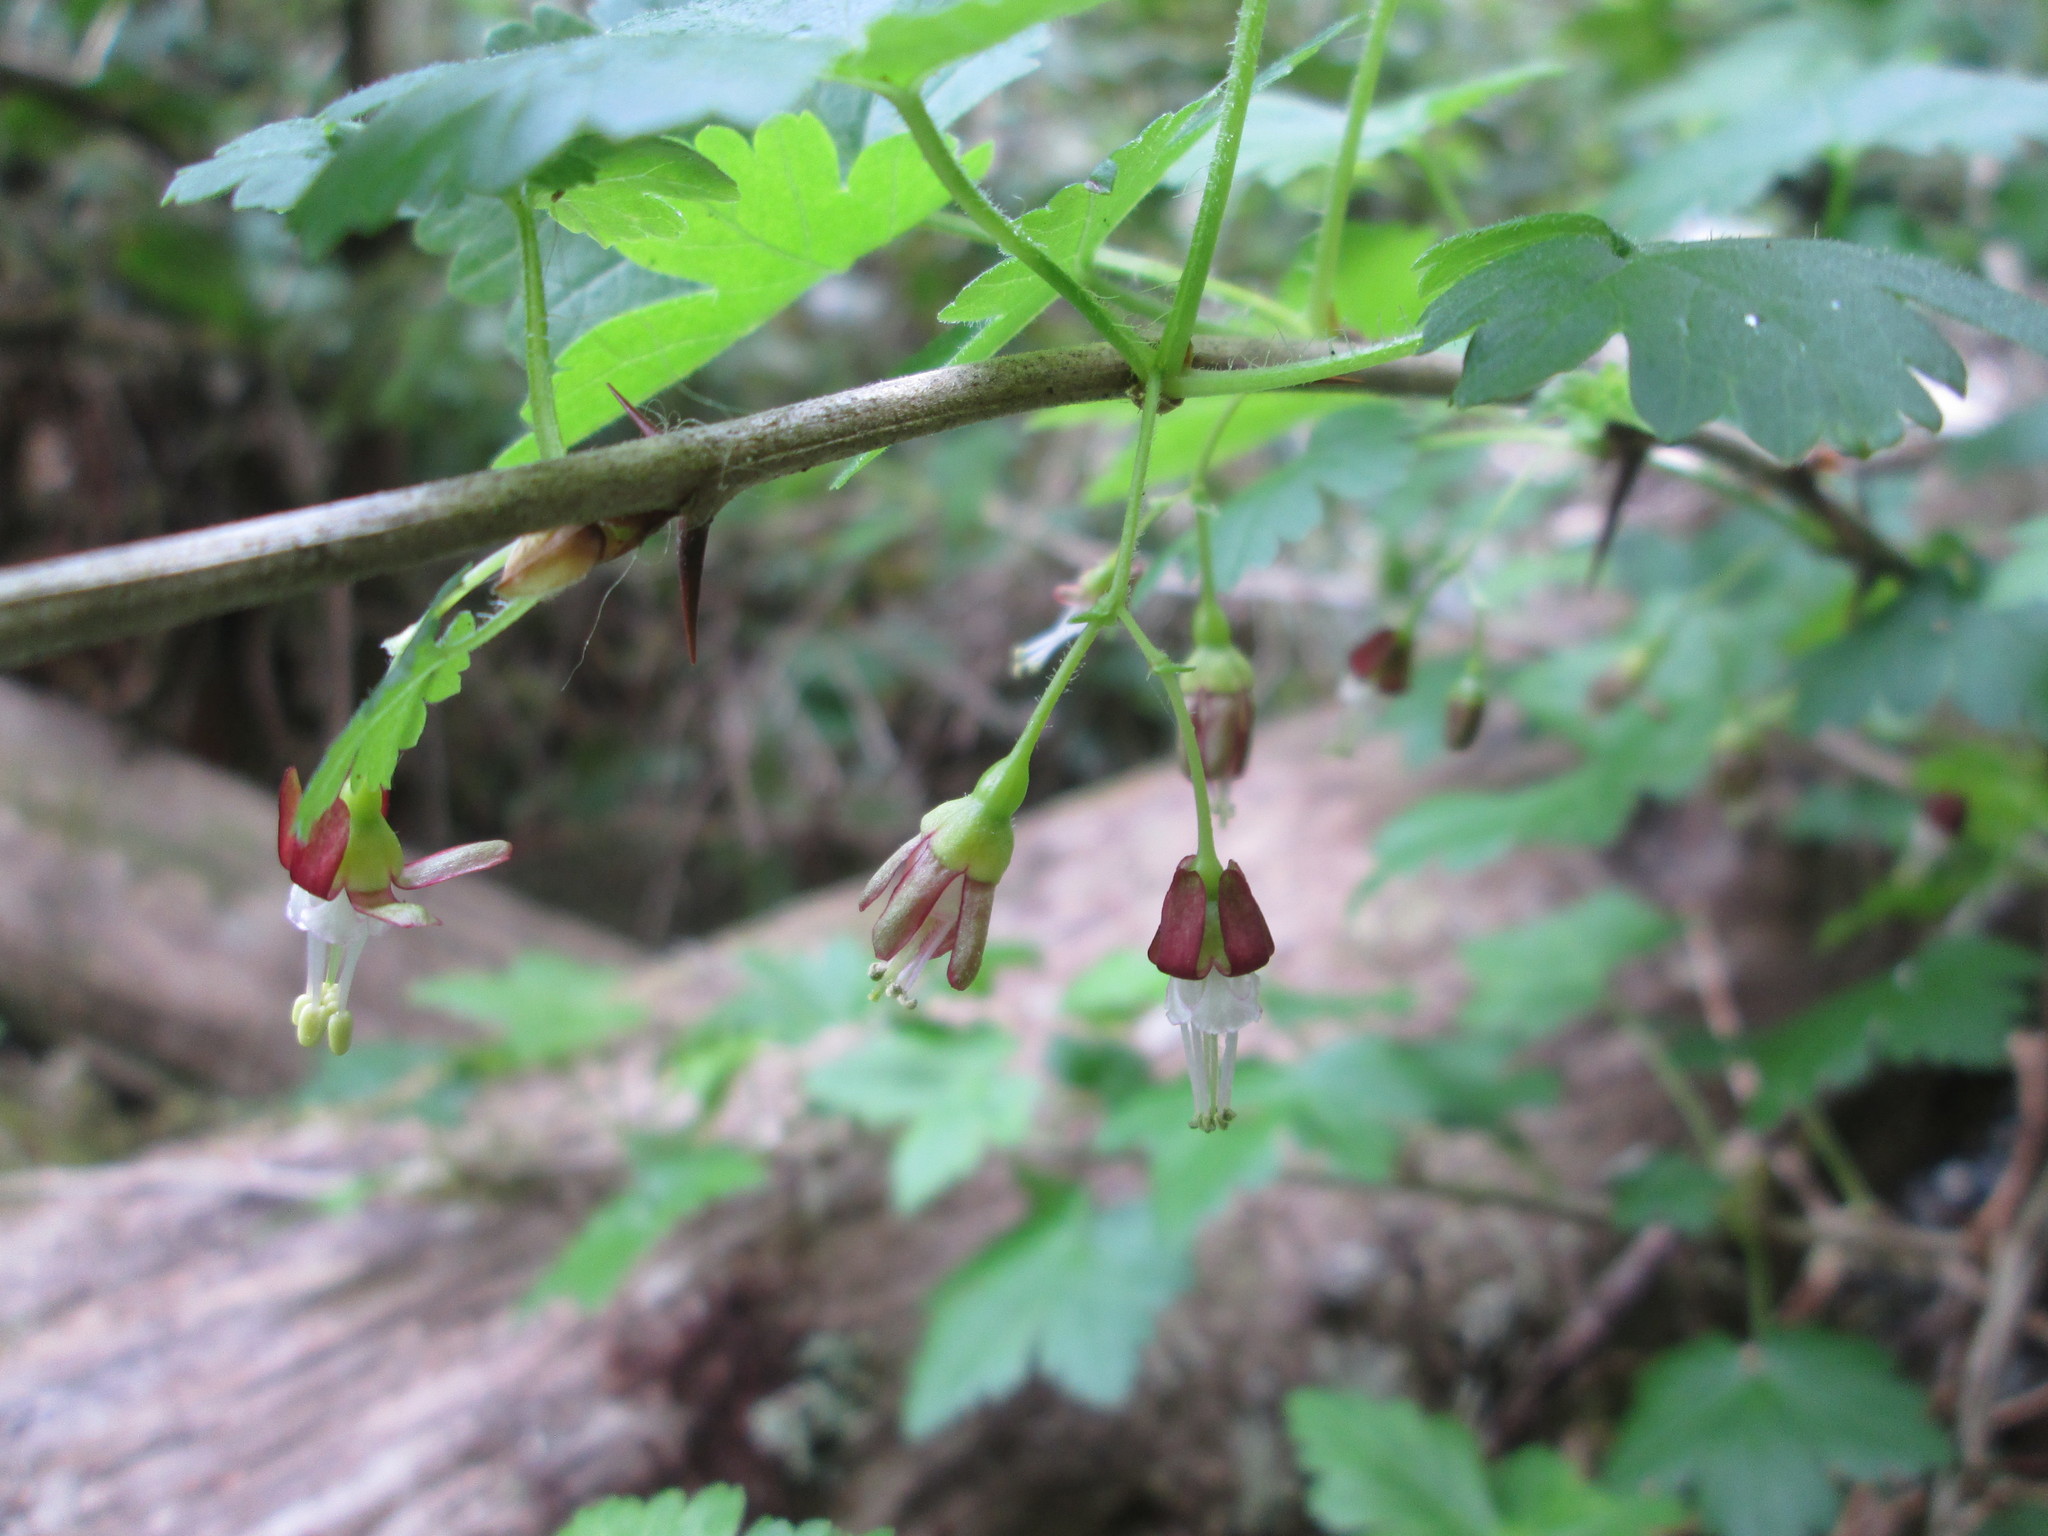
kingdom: Plantae
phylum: Tracheophyta
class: Magnoliopsida
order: Saxifragales
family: Grossulariaceae
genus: Ribes
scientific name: Ribes divaricatum
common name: Wild black gooseberry
